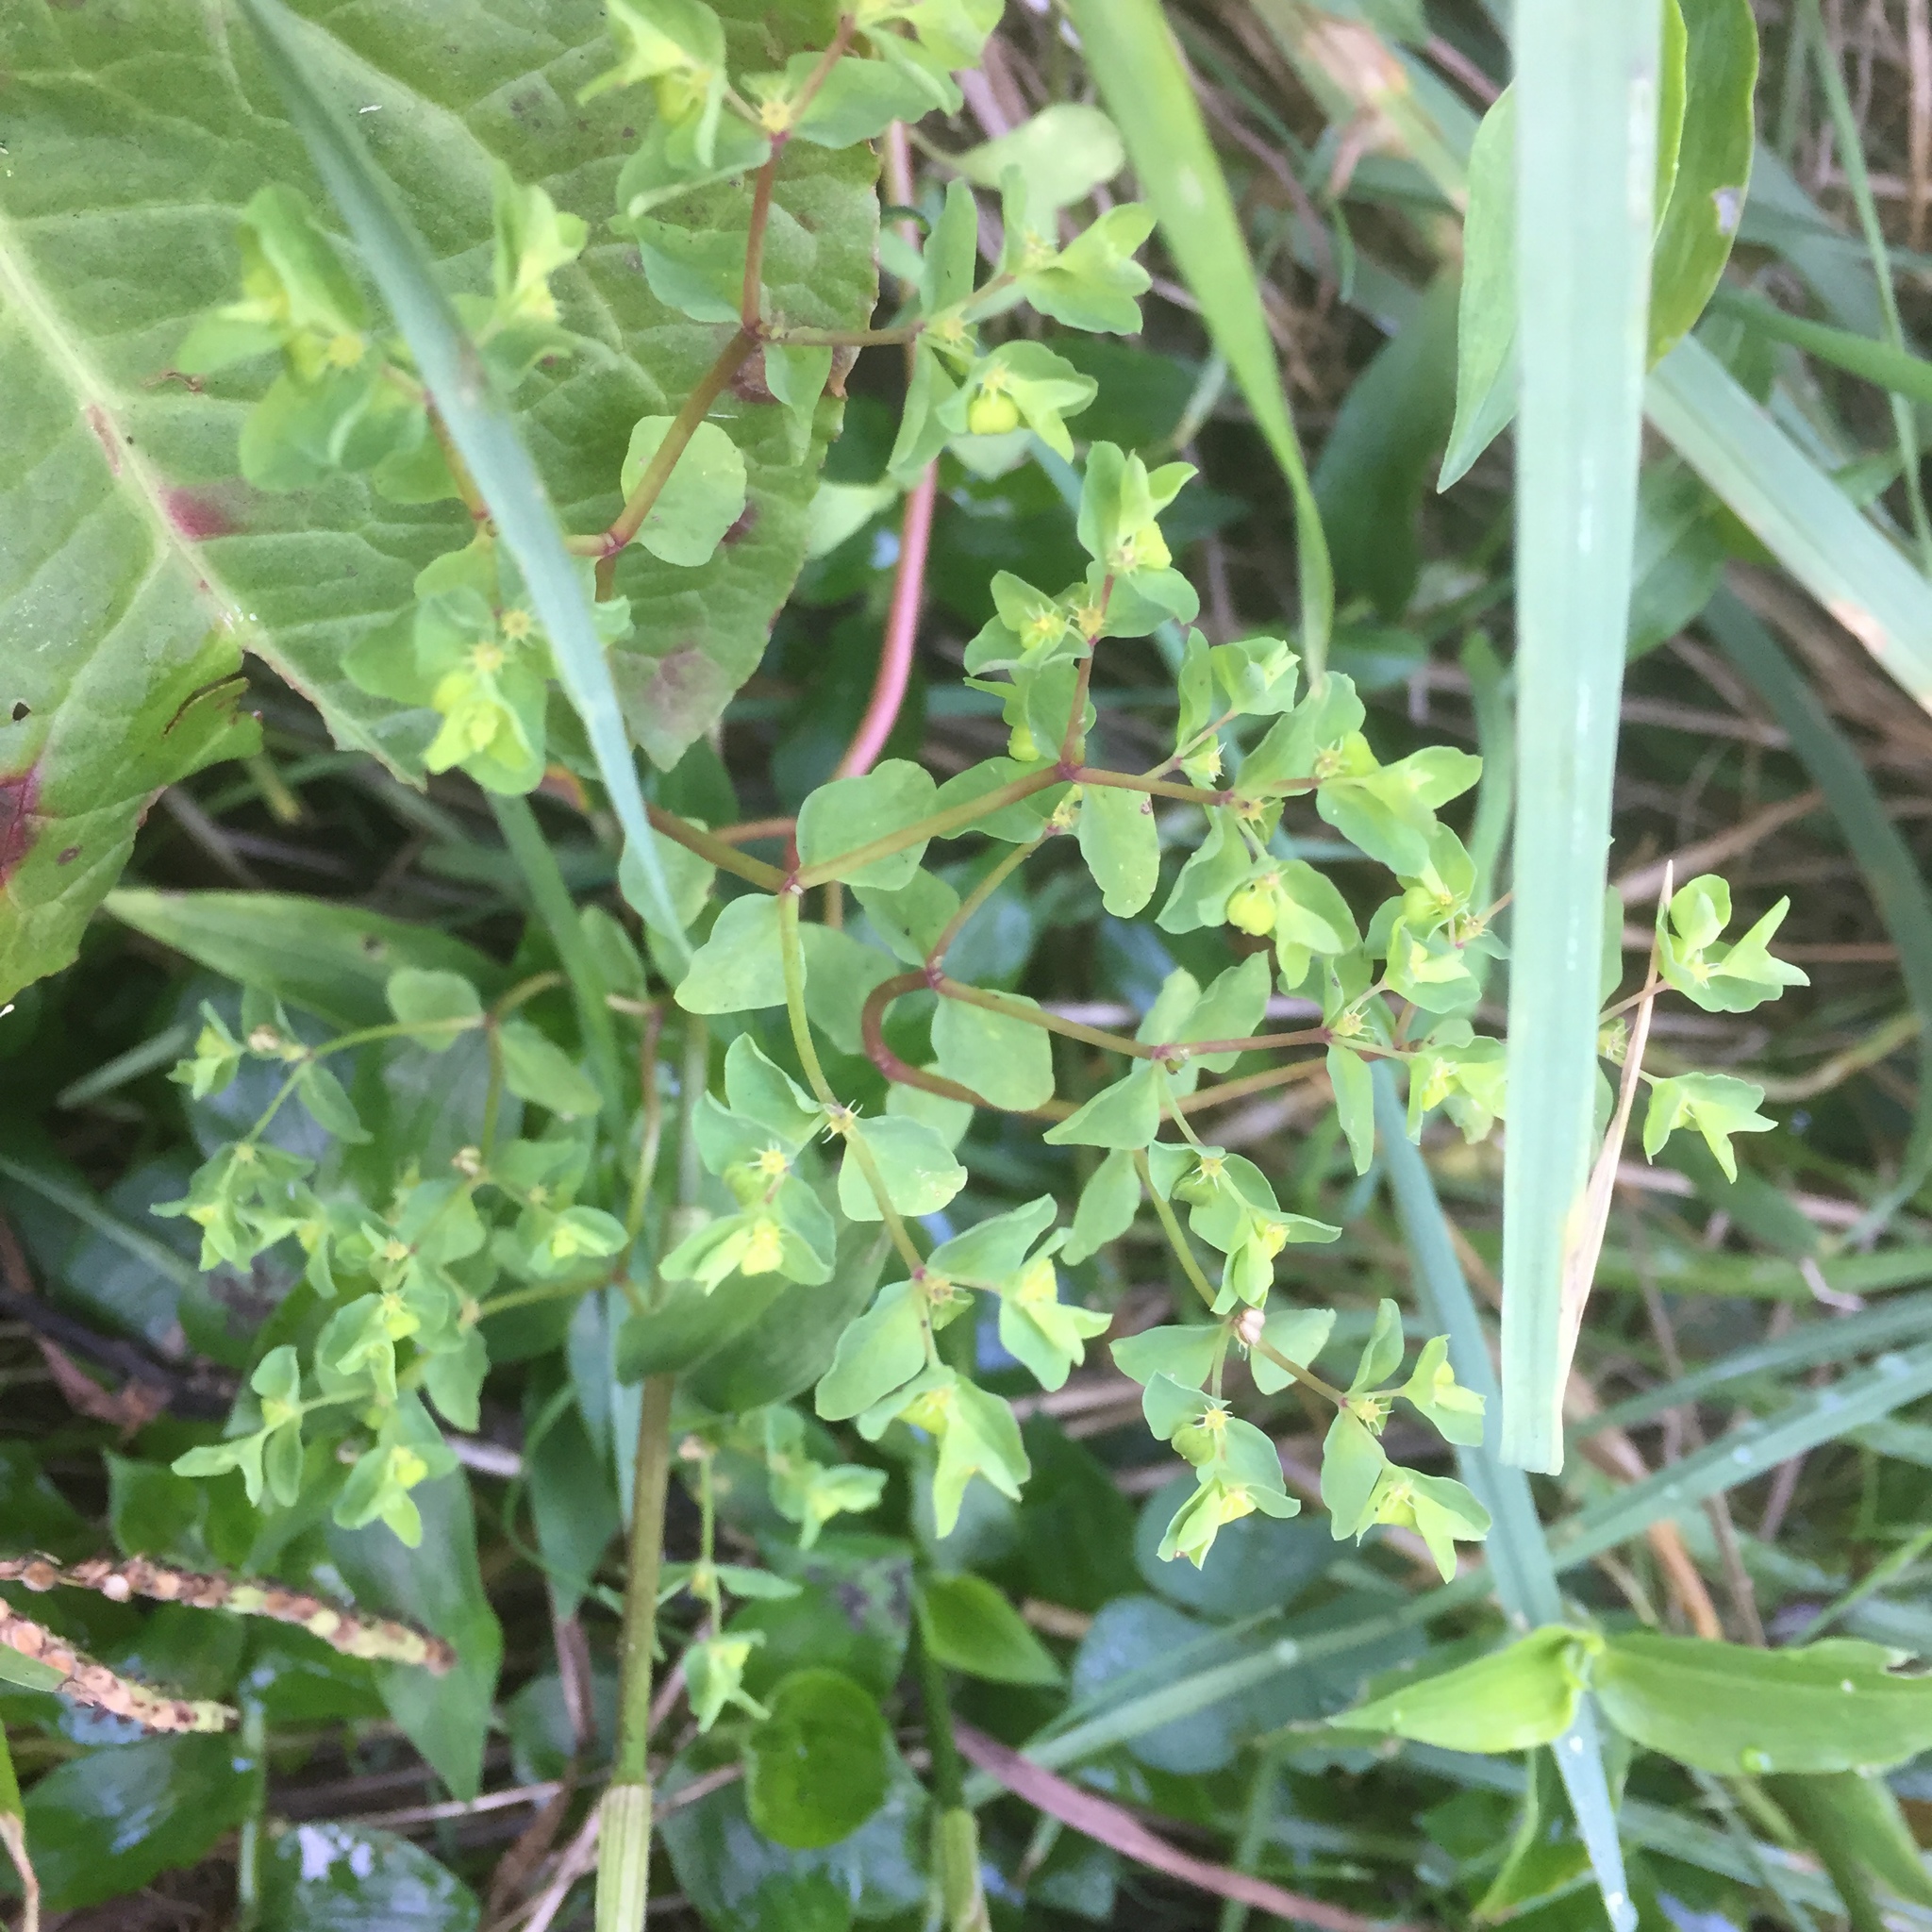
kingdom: Plantae
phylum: Tracheophyta
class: Magnoliopsida
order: Malpighiales
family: Euphorbiaceae
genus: Euphorbia
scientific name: Euphorbia peplus
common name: Petty spurge
